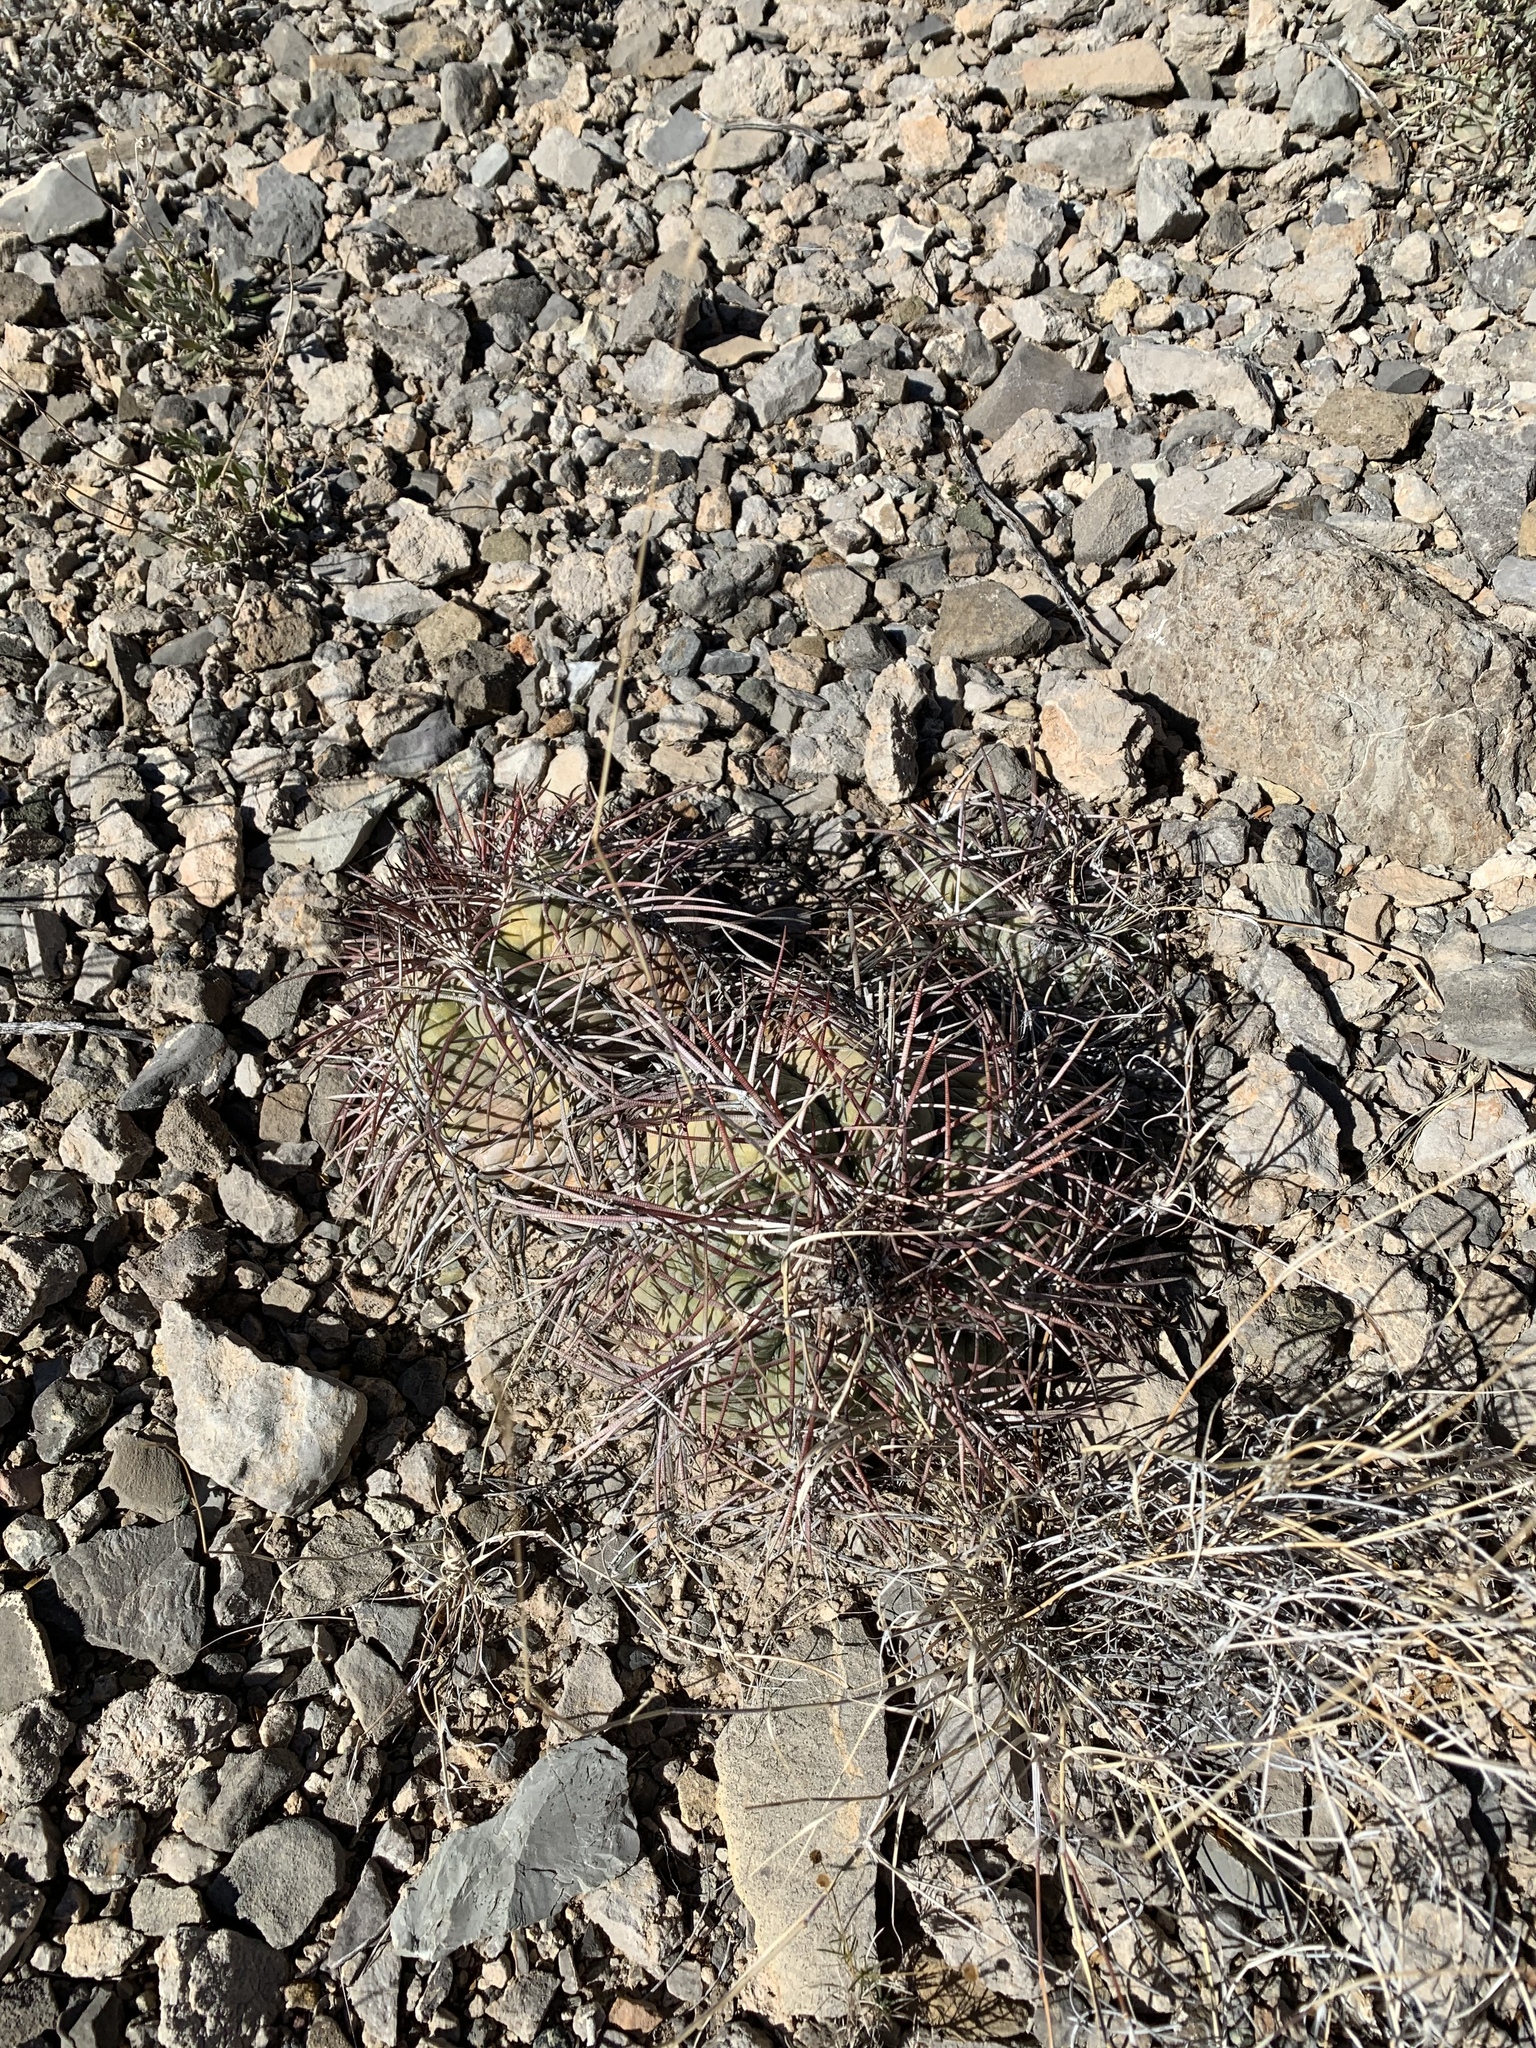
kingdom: Plantae
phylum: Tracheophyta
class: Magnoliopsida
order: Caryophyllales
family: Cactaceae
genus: Echinocactus
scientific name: Echinocactus horizonthalonius
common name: Devilshead
